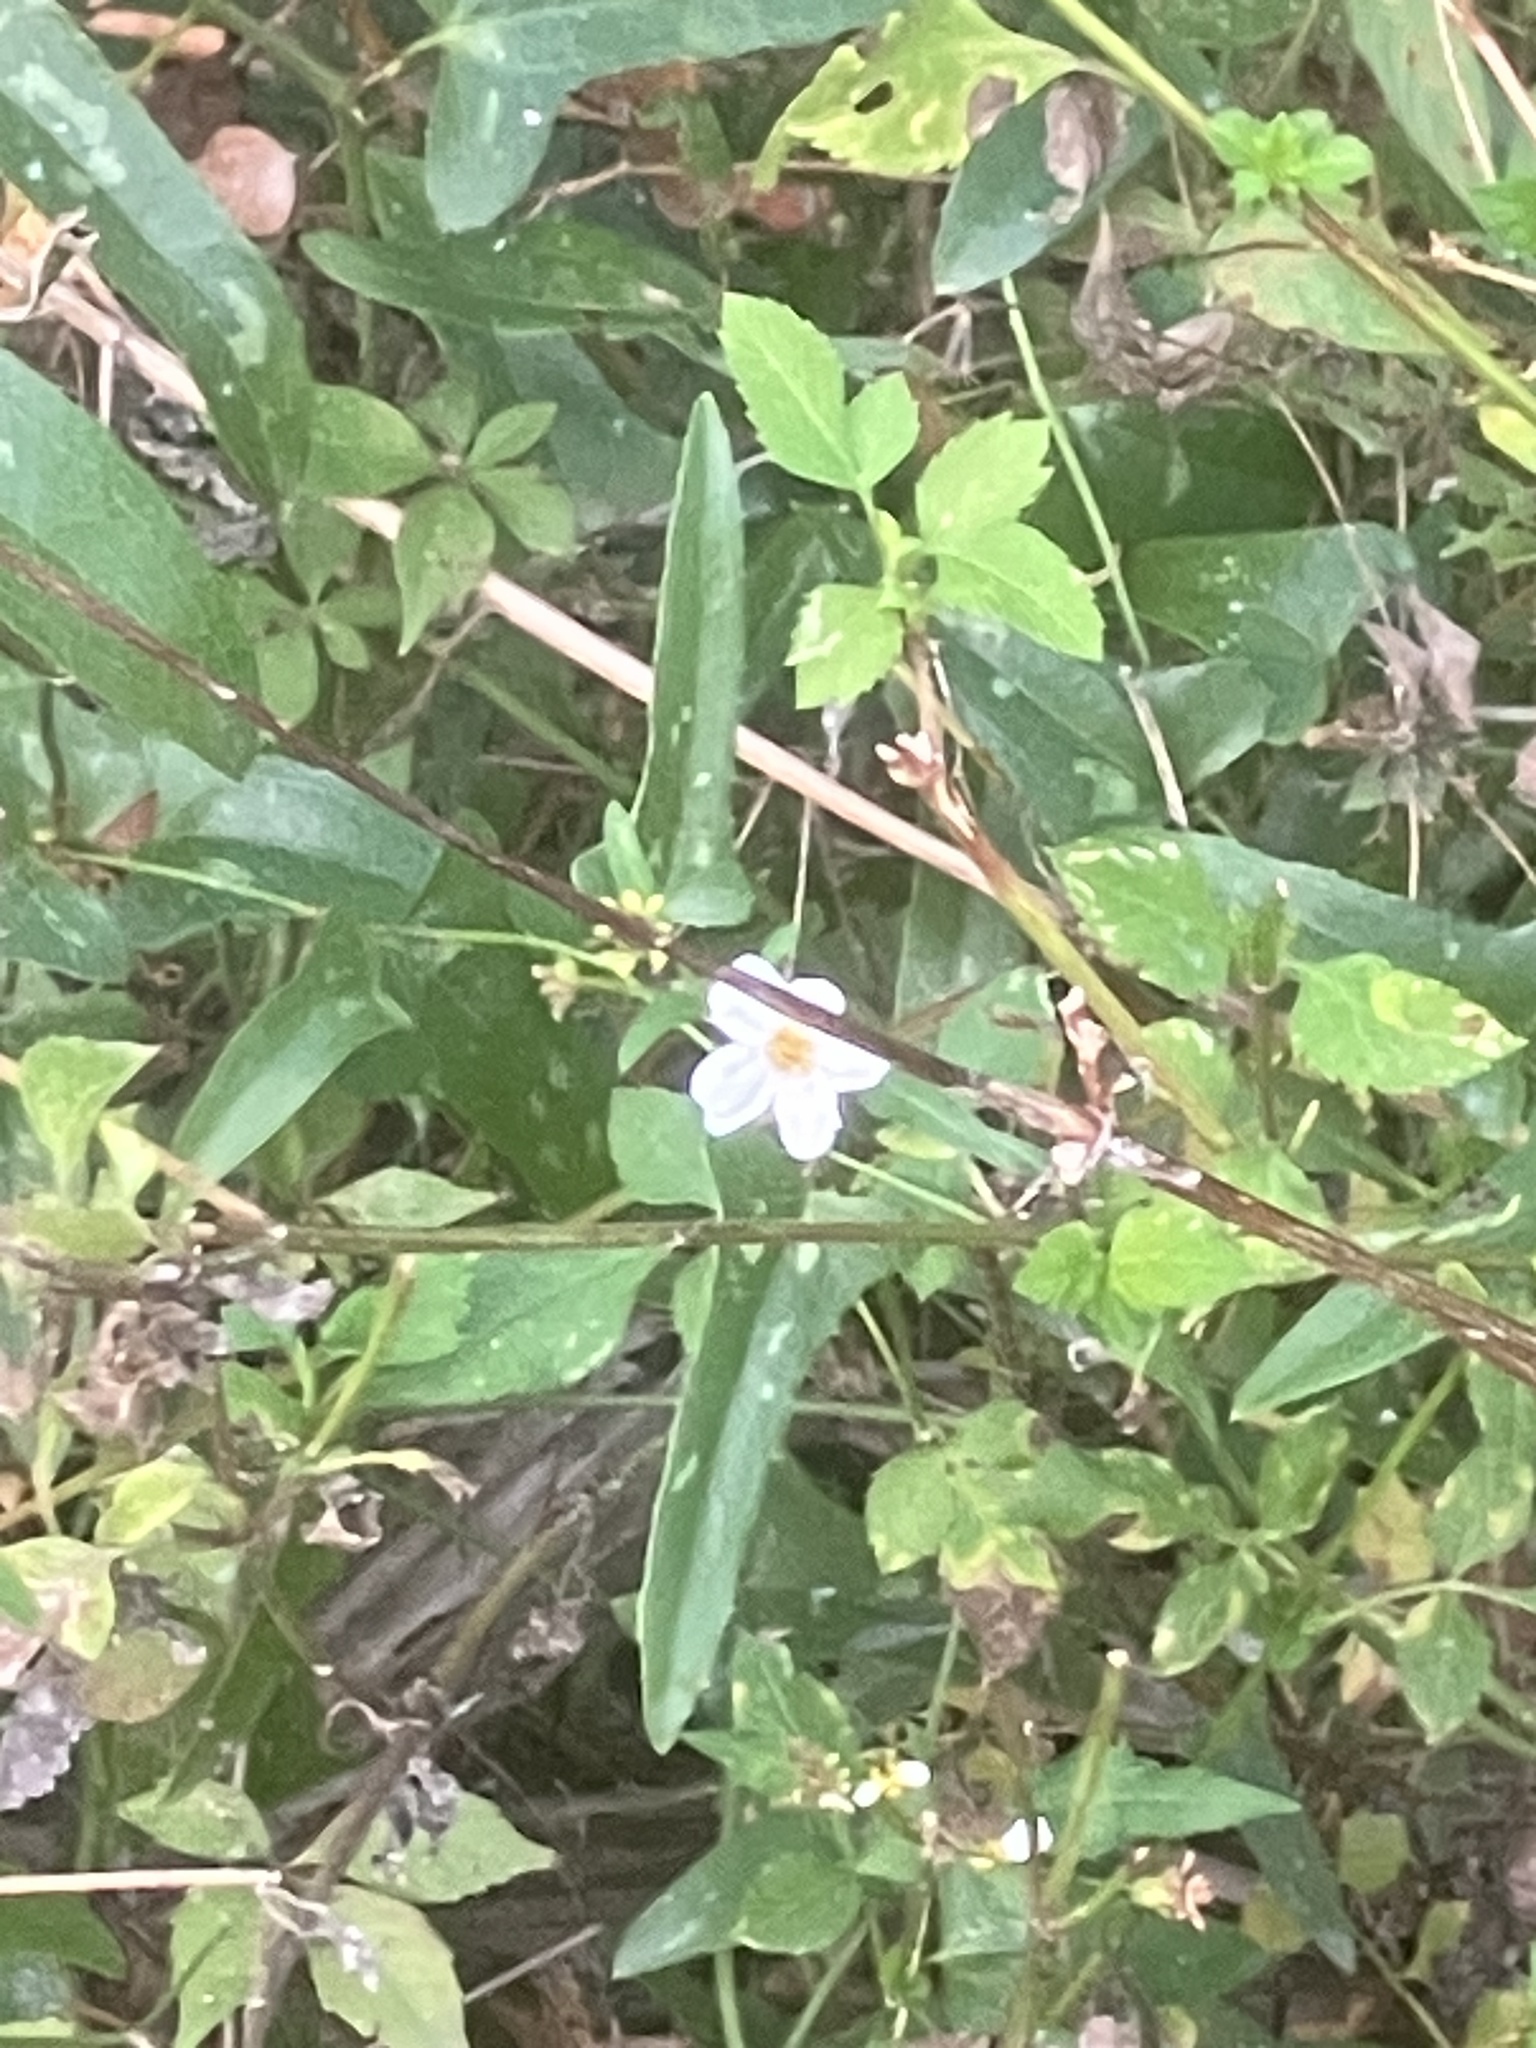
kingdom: Plantae
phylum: Tracheophyta
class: Magnoliopsida
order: Asterales
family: Asteraceae
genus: Bidens
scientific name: Bidens alba
